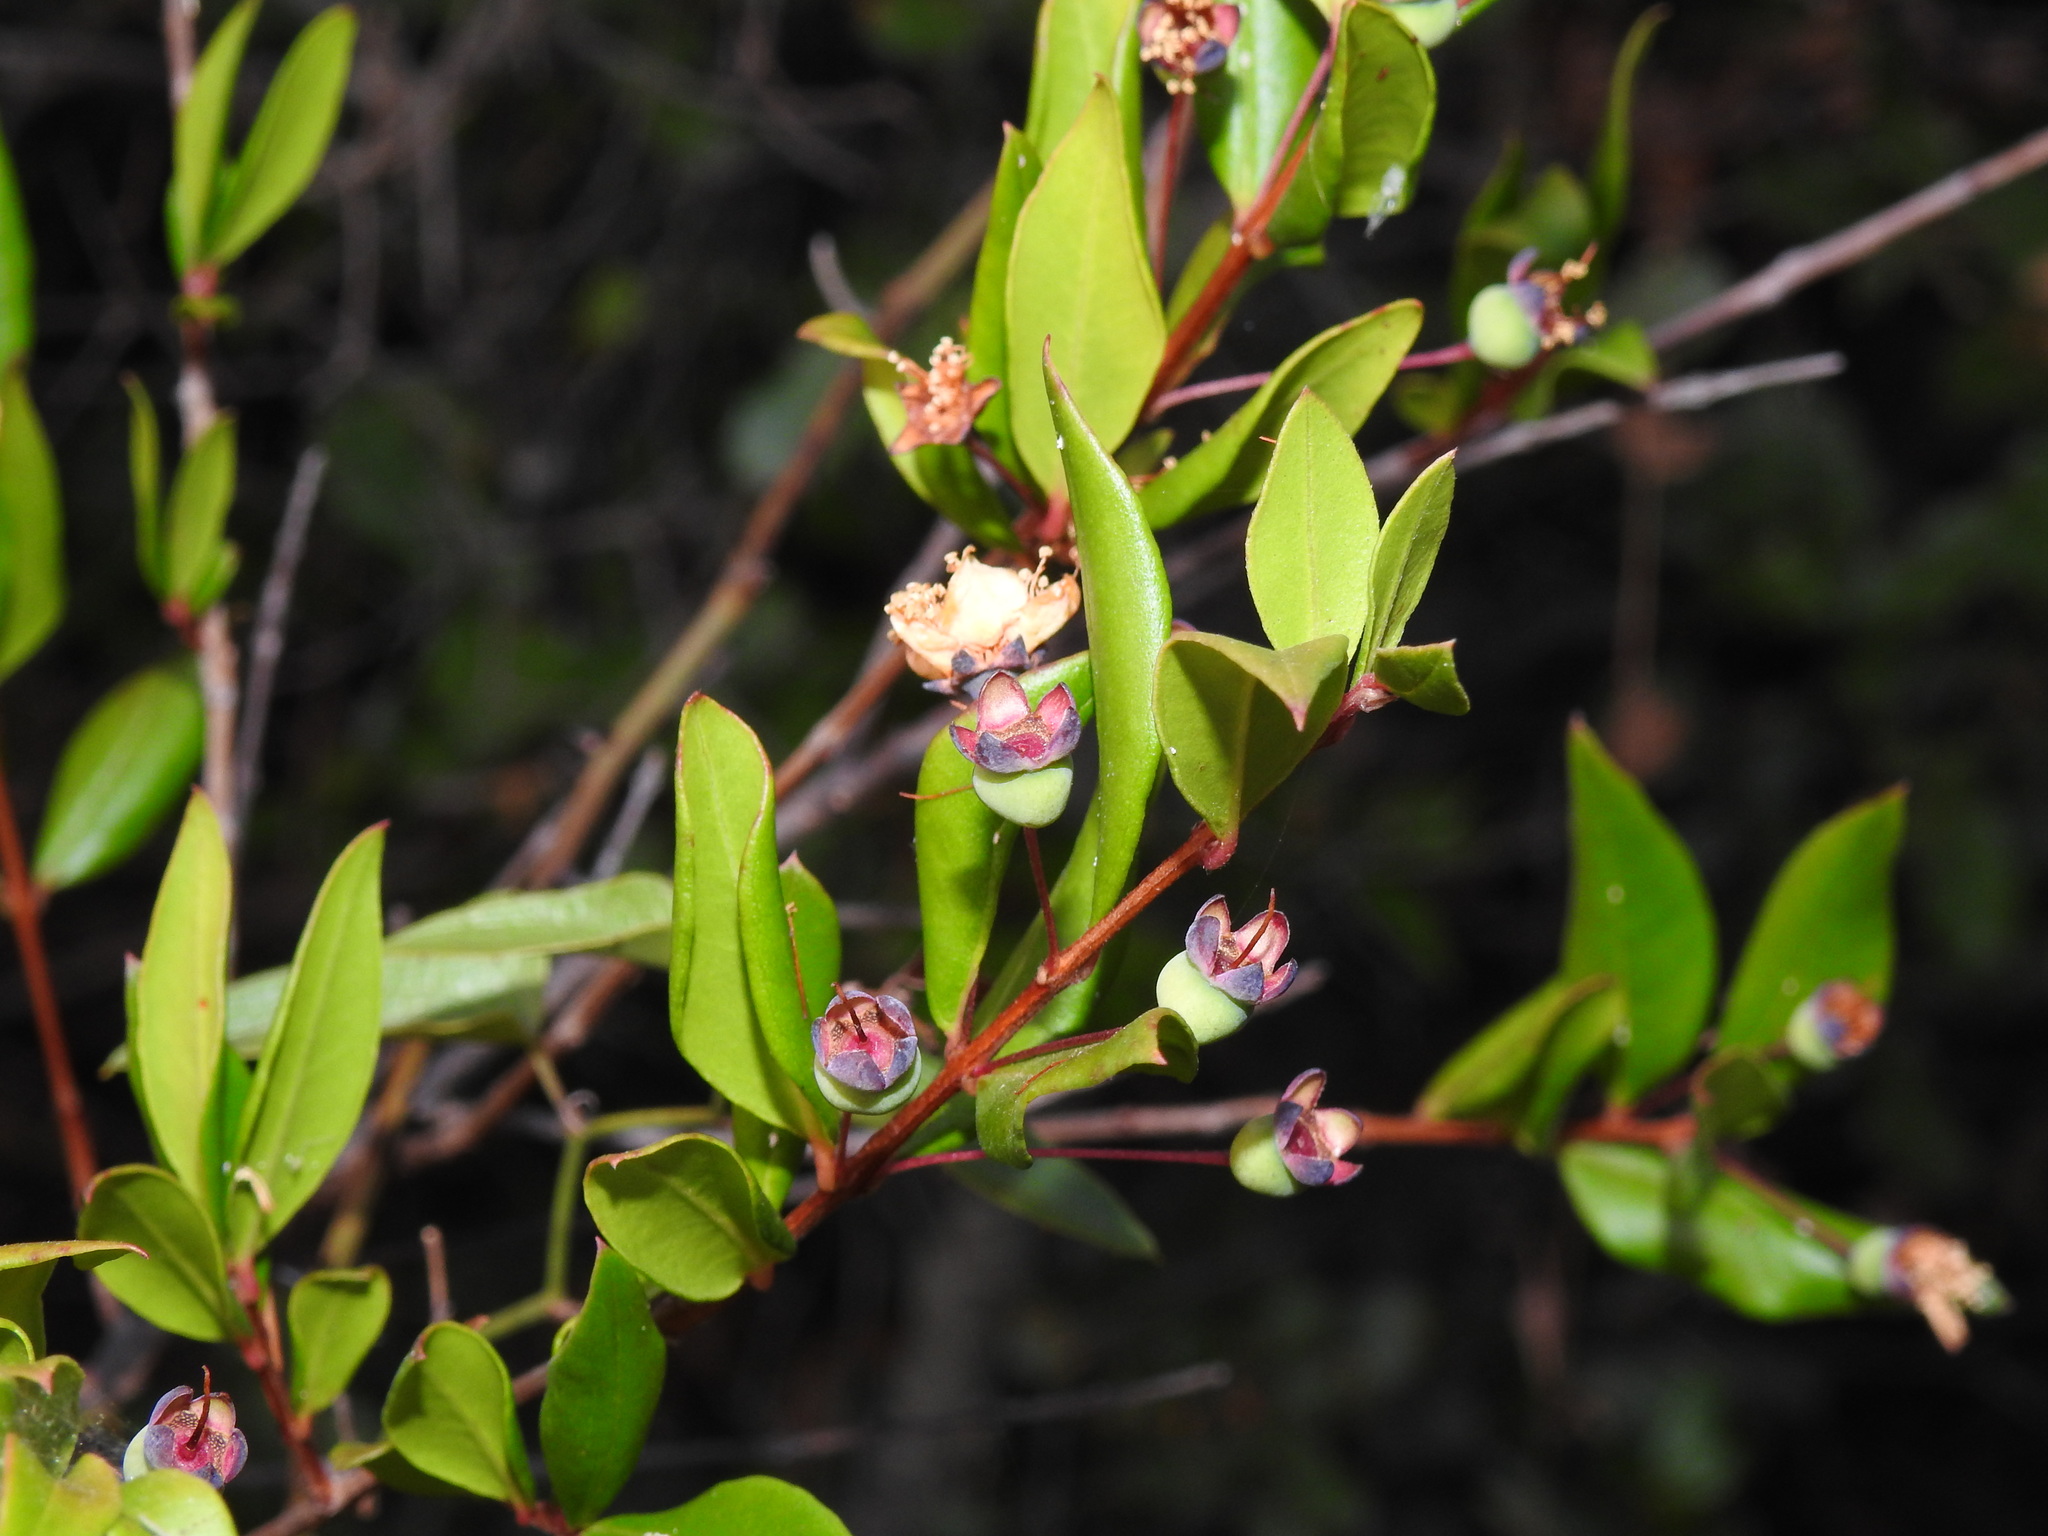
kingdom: Plantae
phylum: Tracheophyta
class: Magnoliopsida
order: Myrtales
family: Myrtaceae
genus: Myrtus
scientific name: Myrtus communis
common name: Myrtle
